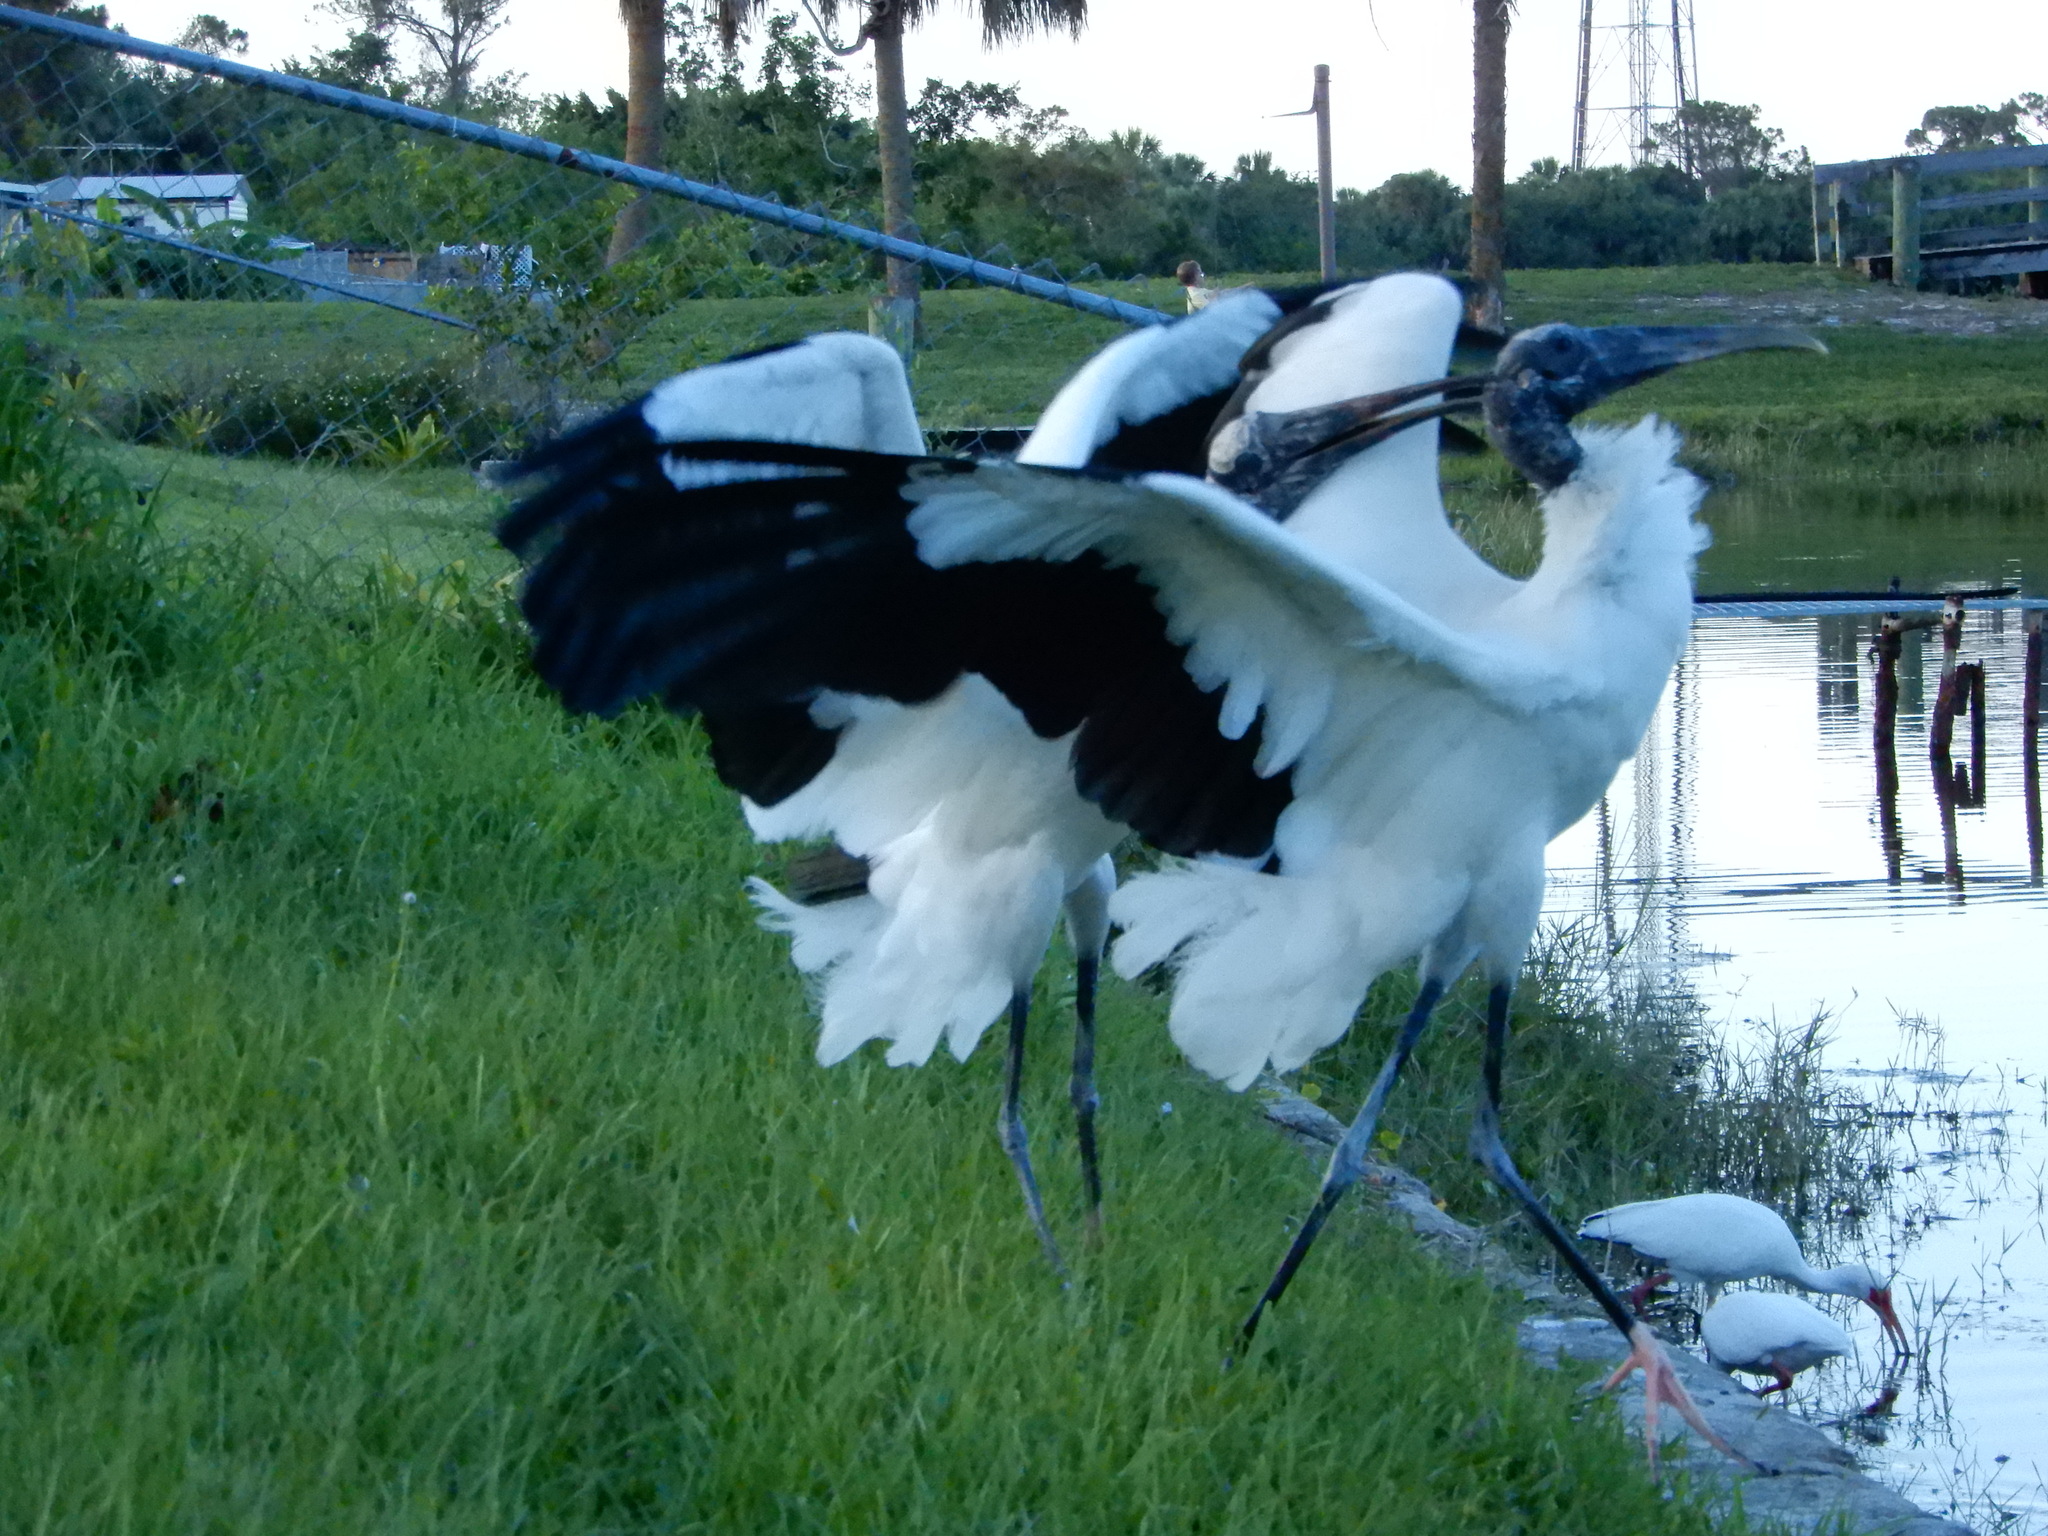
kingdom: Animalia
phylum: Chordata
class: Aves
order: Ciconiiformes
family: Ciconiidae
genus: Mycteria
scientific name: Mycteria americana
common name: Wood stork
